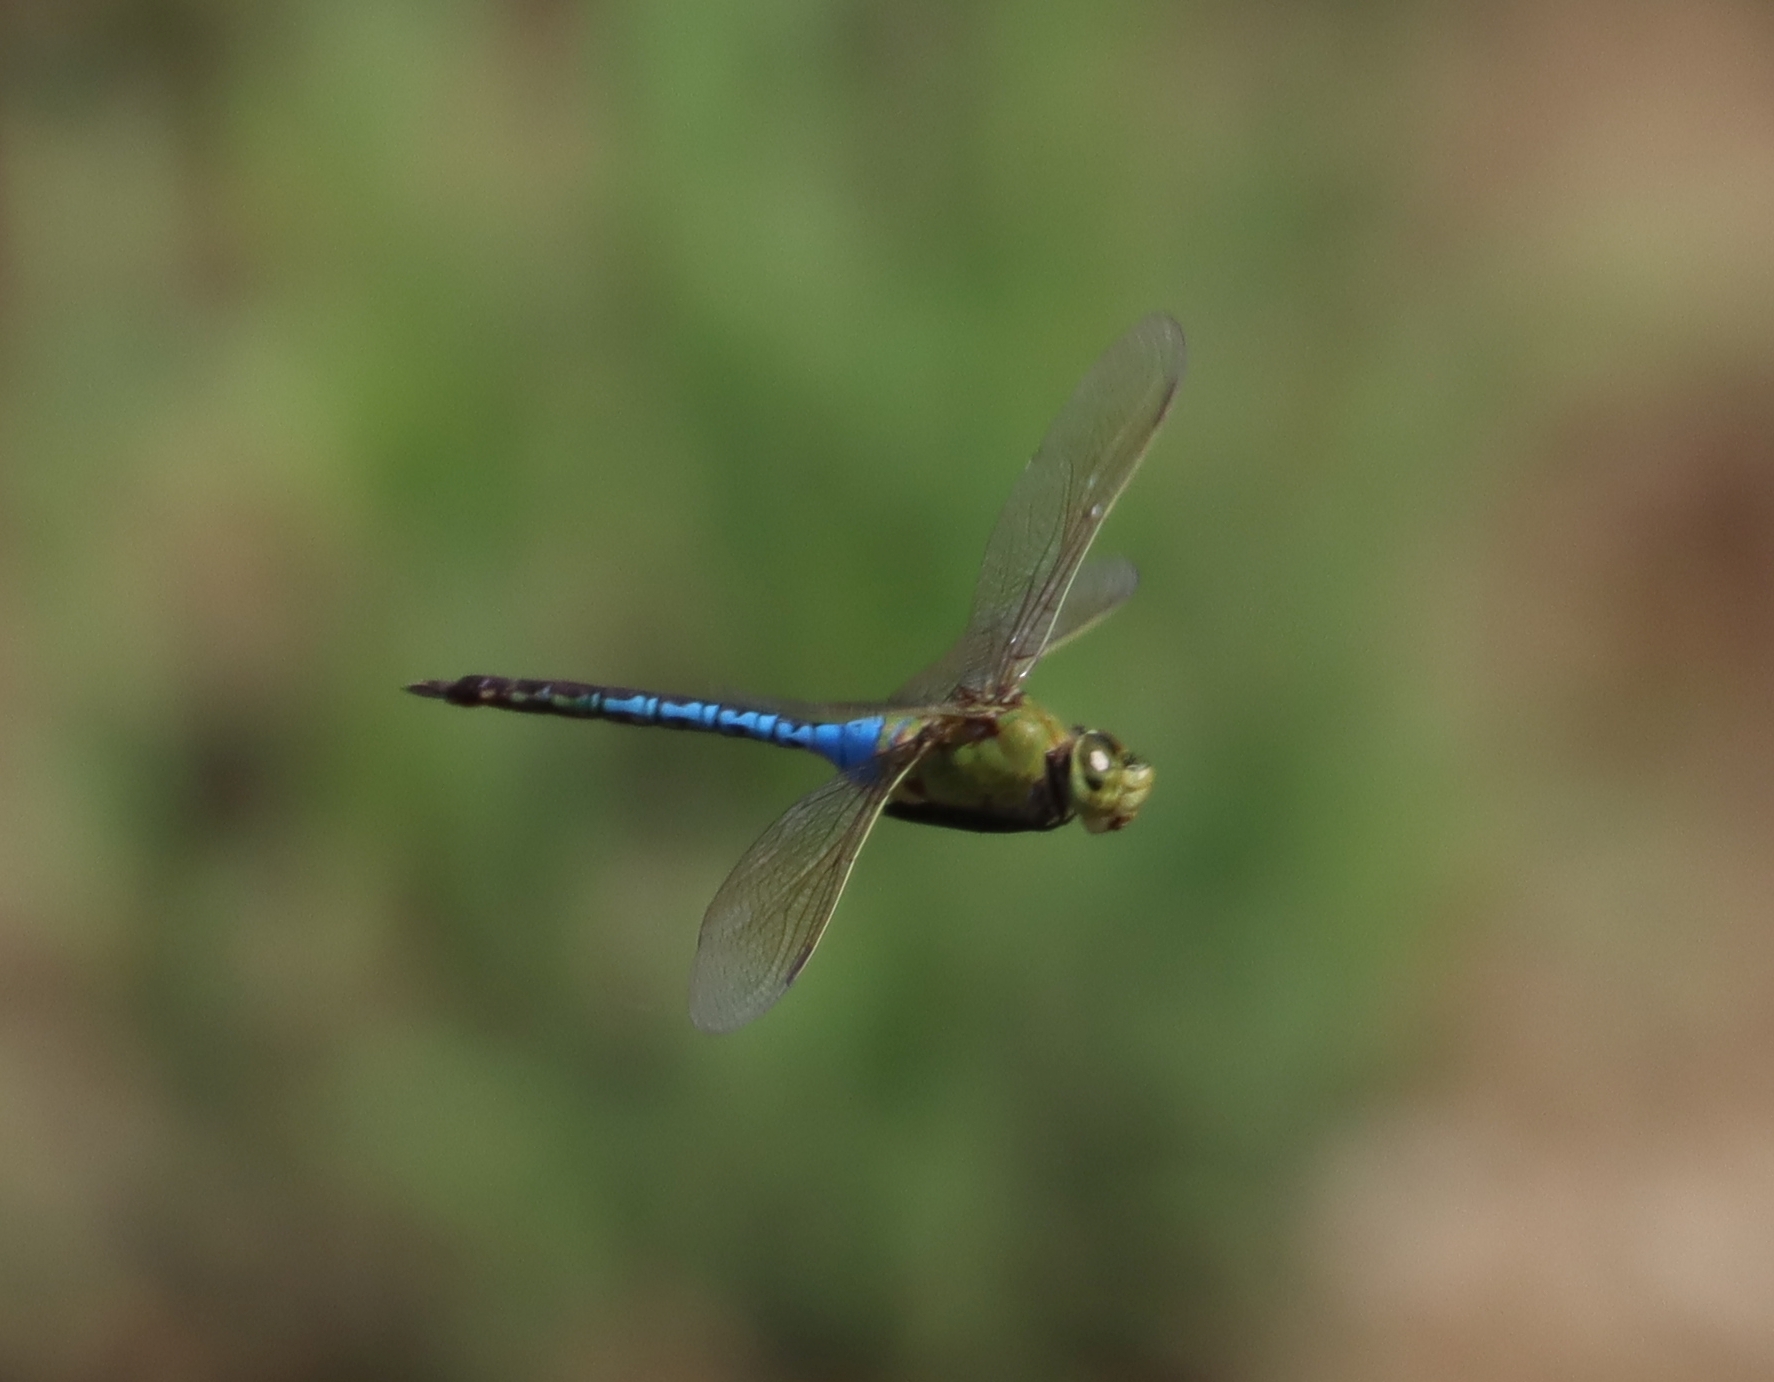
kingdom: Animalia
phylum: Arthropoda
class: Insecta
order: Odonata
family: Aeshnidae
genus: Anax
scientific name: Anax junius
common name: Common green darner
